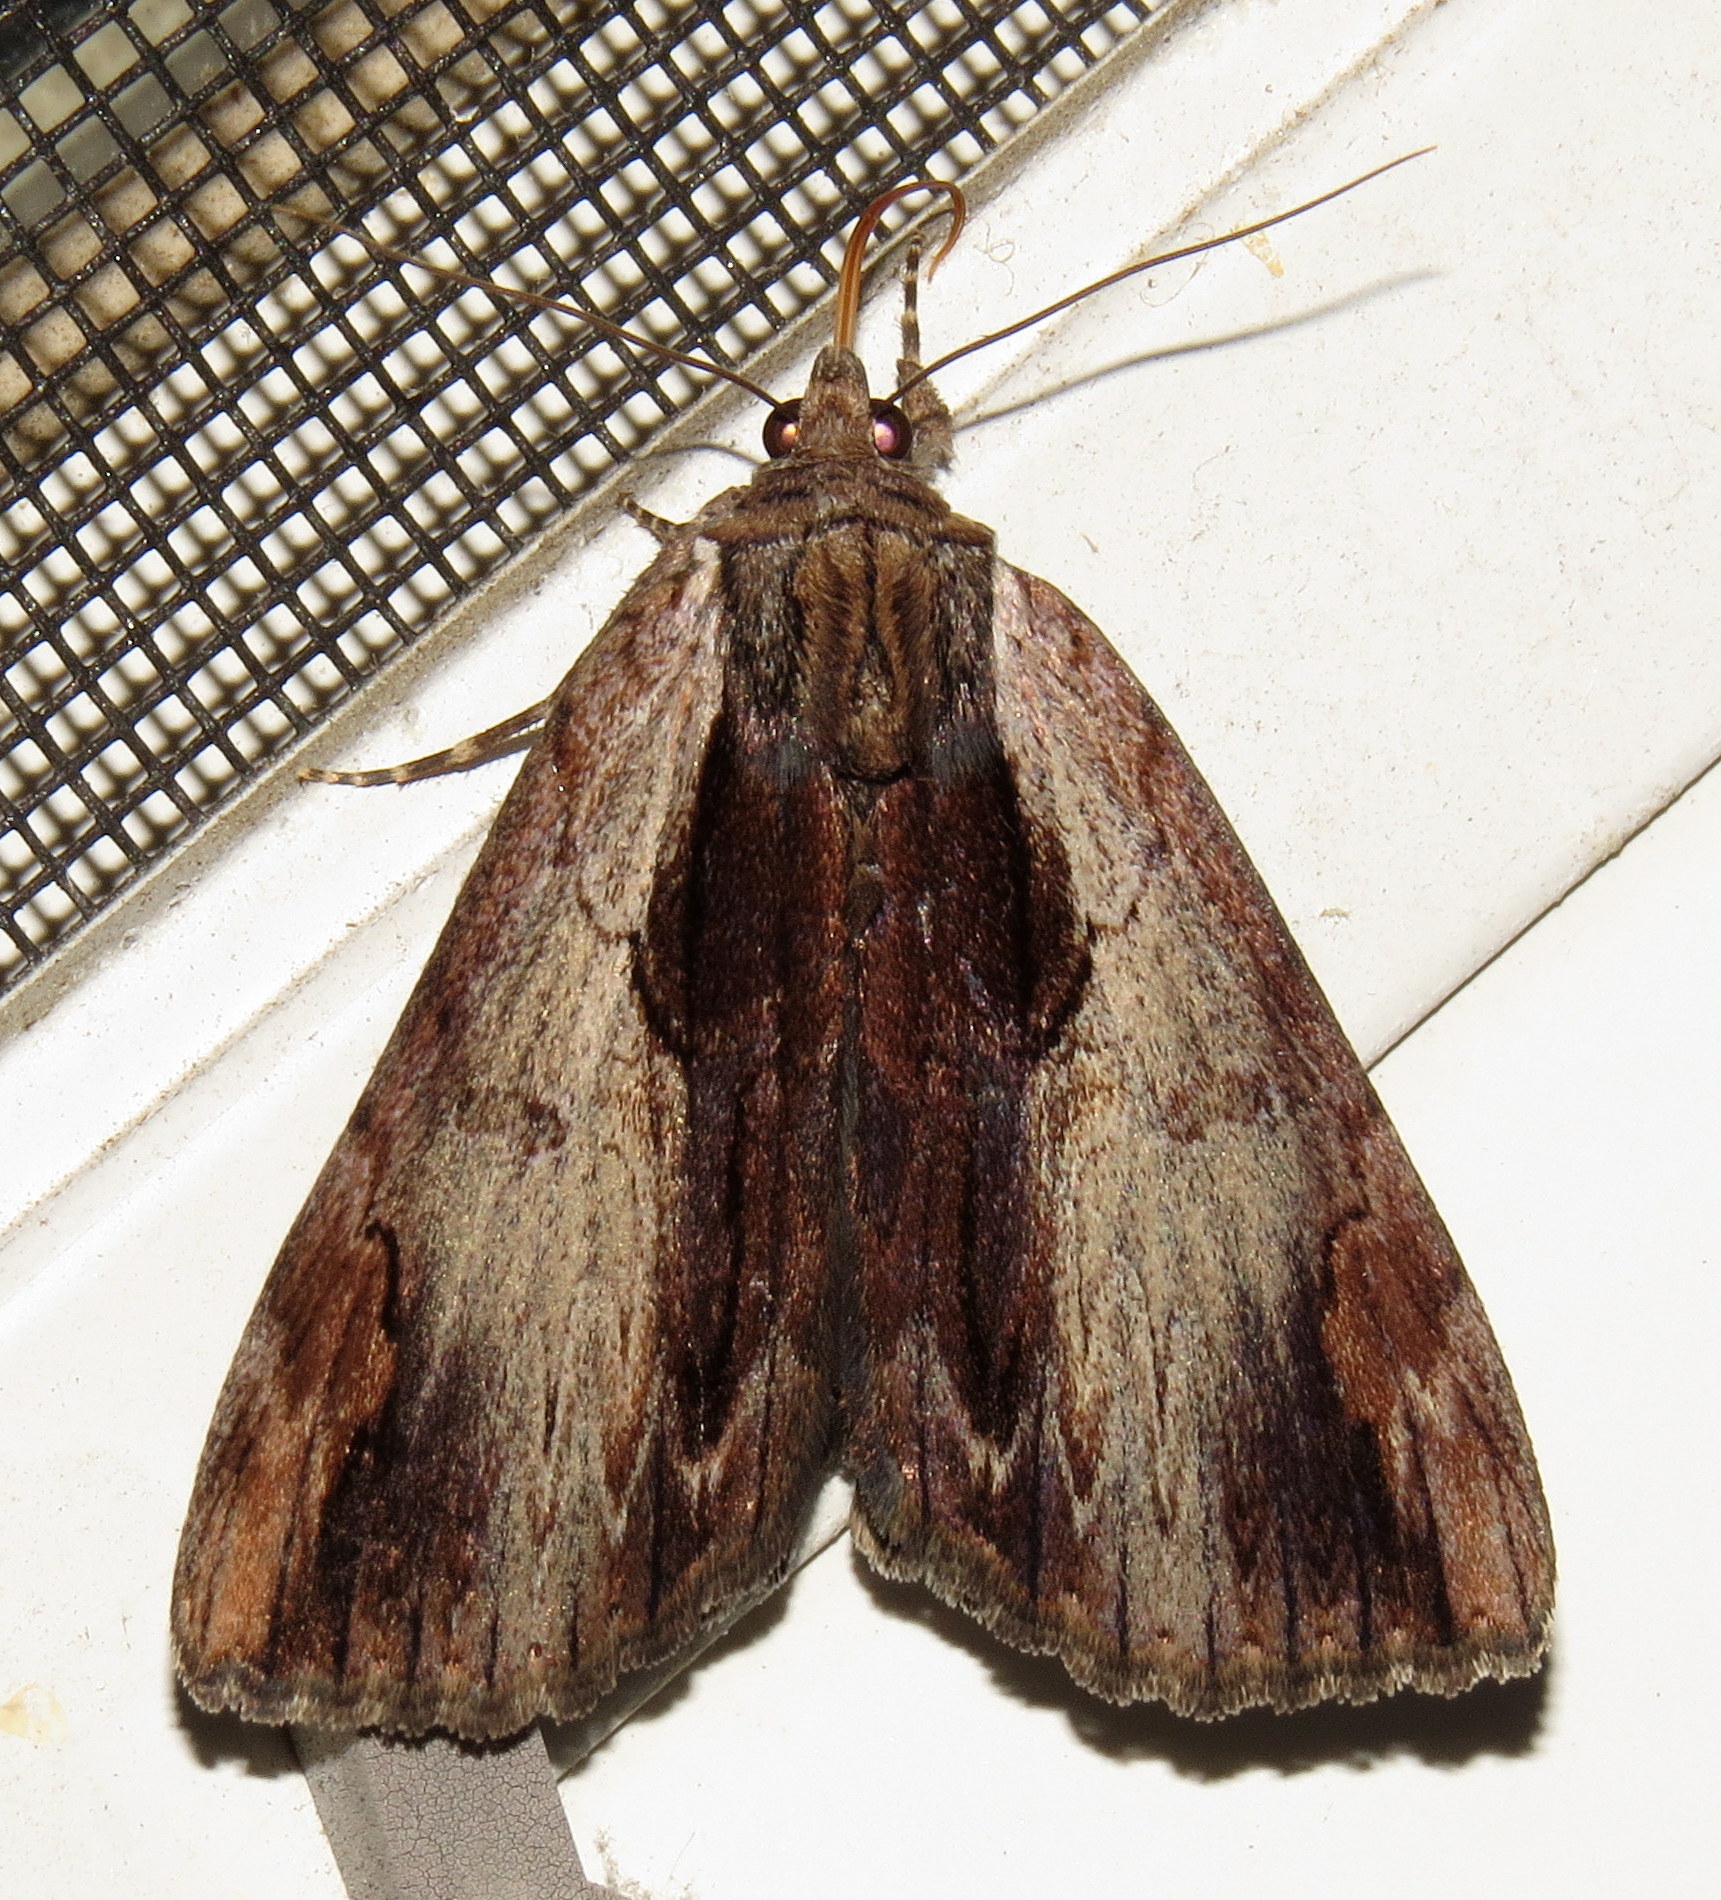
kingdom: Animalia
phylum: Arthropoda
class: Insecta
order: Lepidoptera
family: Erebidae
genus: Catocala
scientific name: Catocala ultronia
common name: Ultronia underwing
